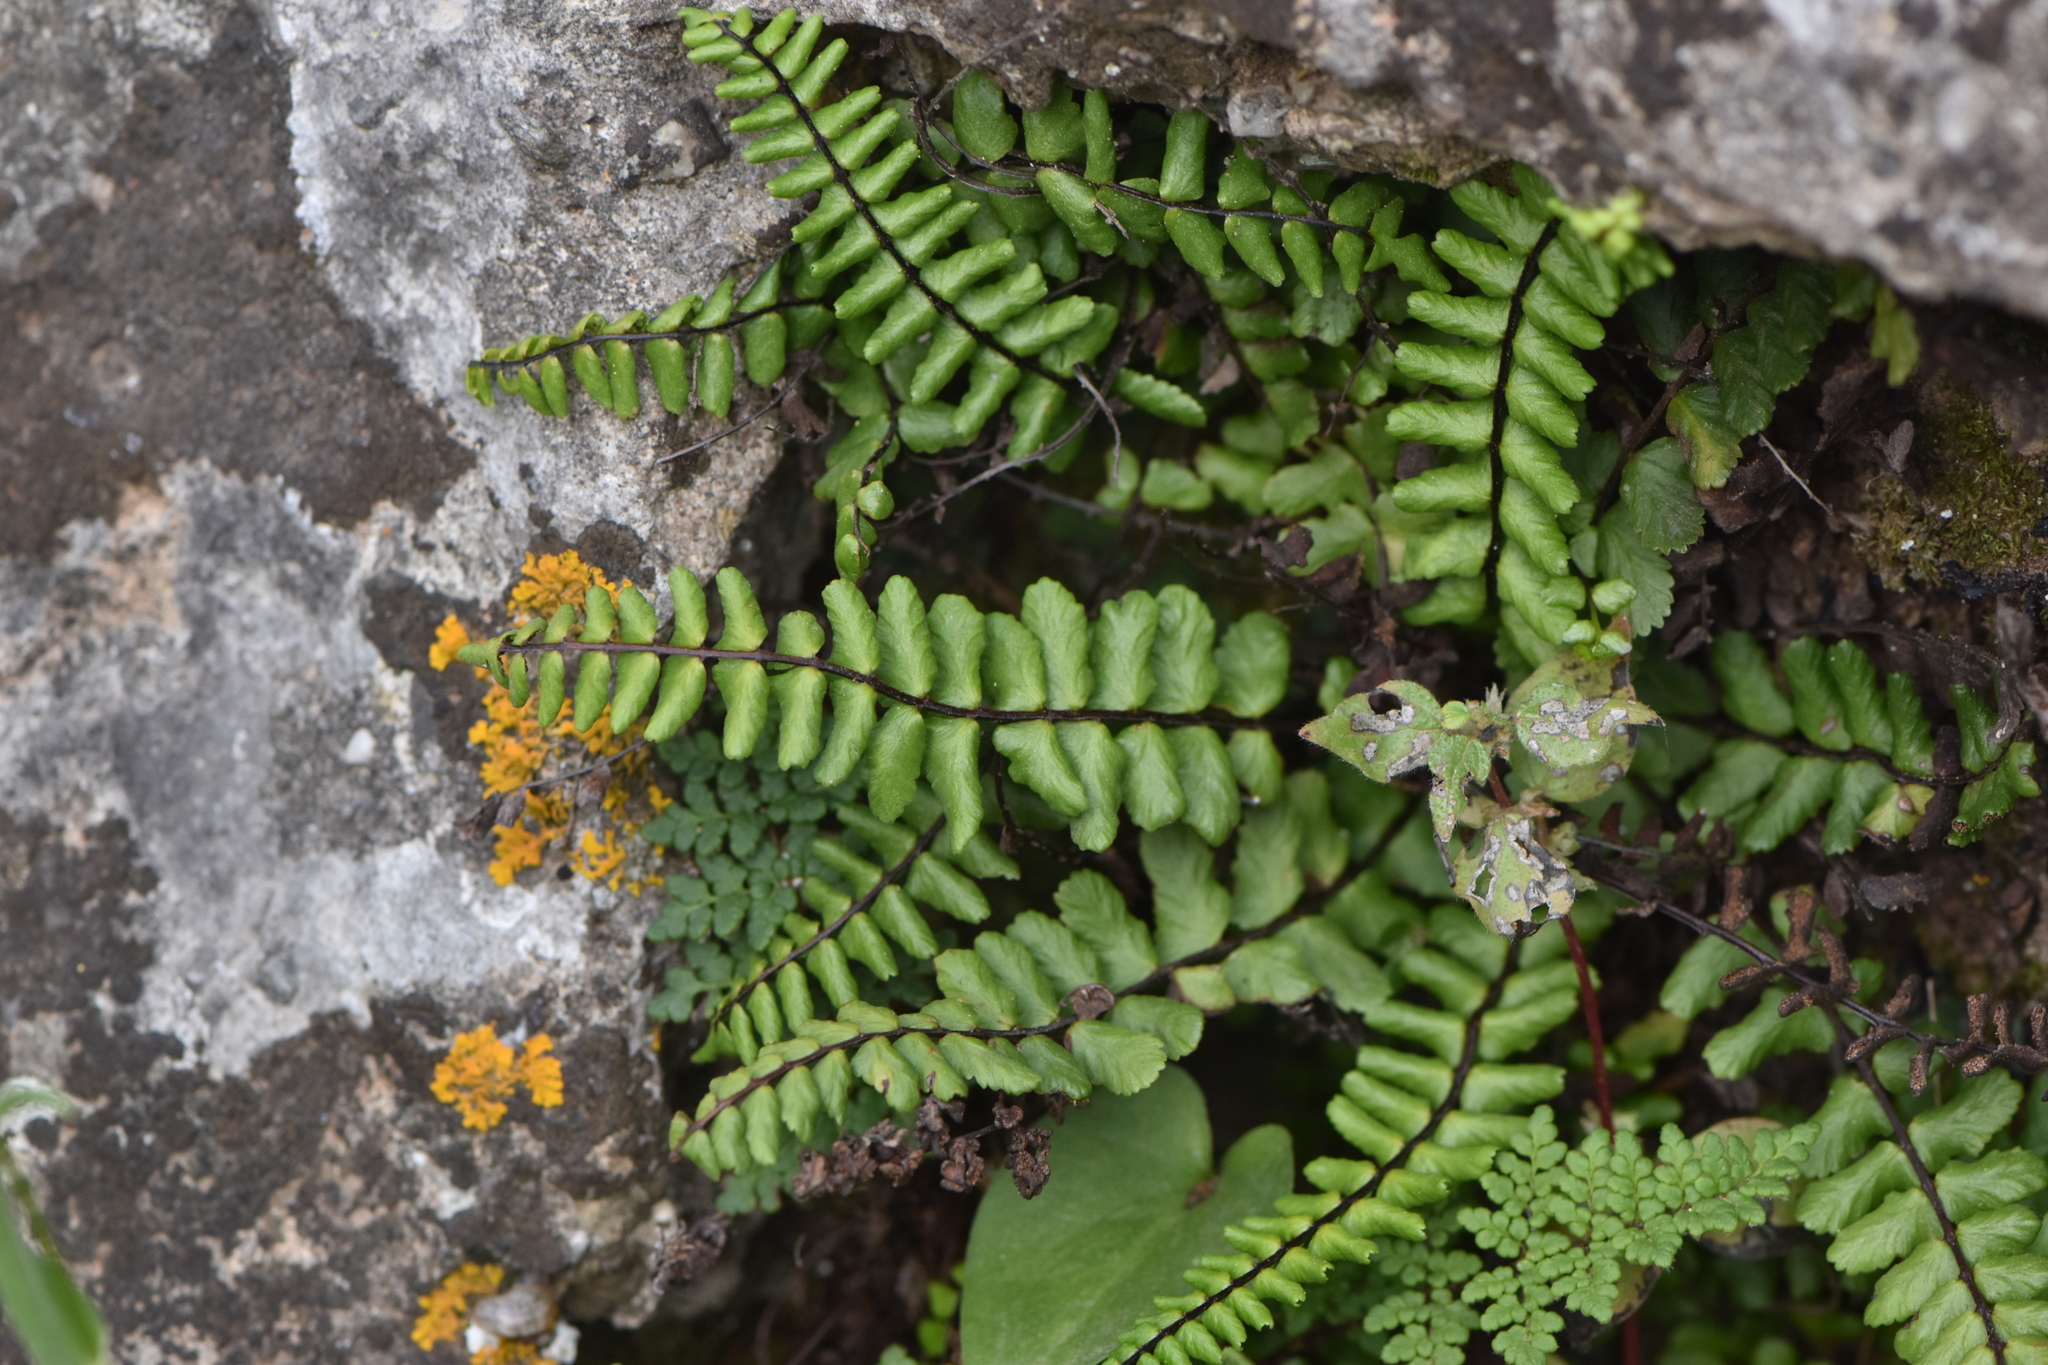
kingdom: Plantae
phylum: Tracheophyta
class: Polypodiopsida
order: Polypodiales
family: Aspleniaceae
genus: Asplenium
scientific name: Asplenium azomanes
